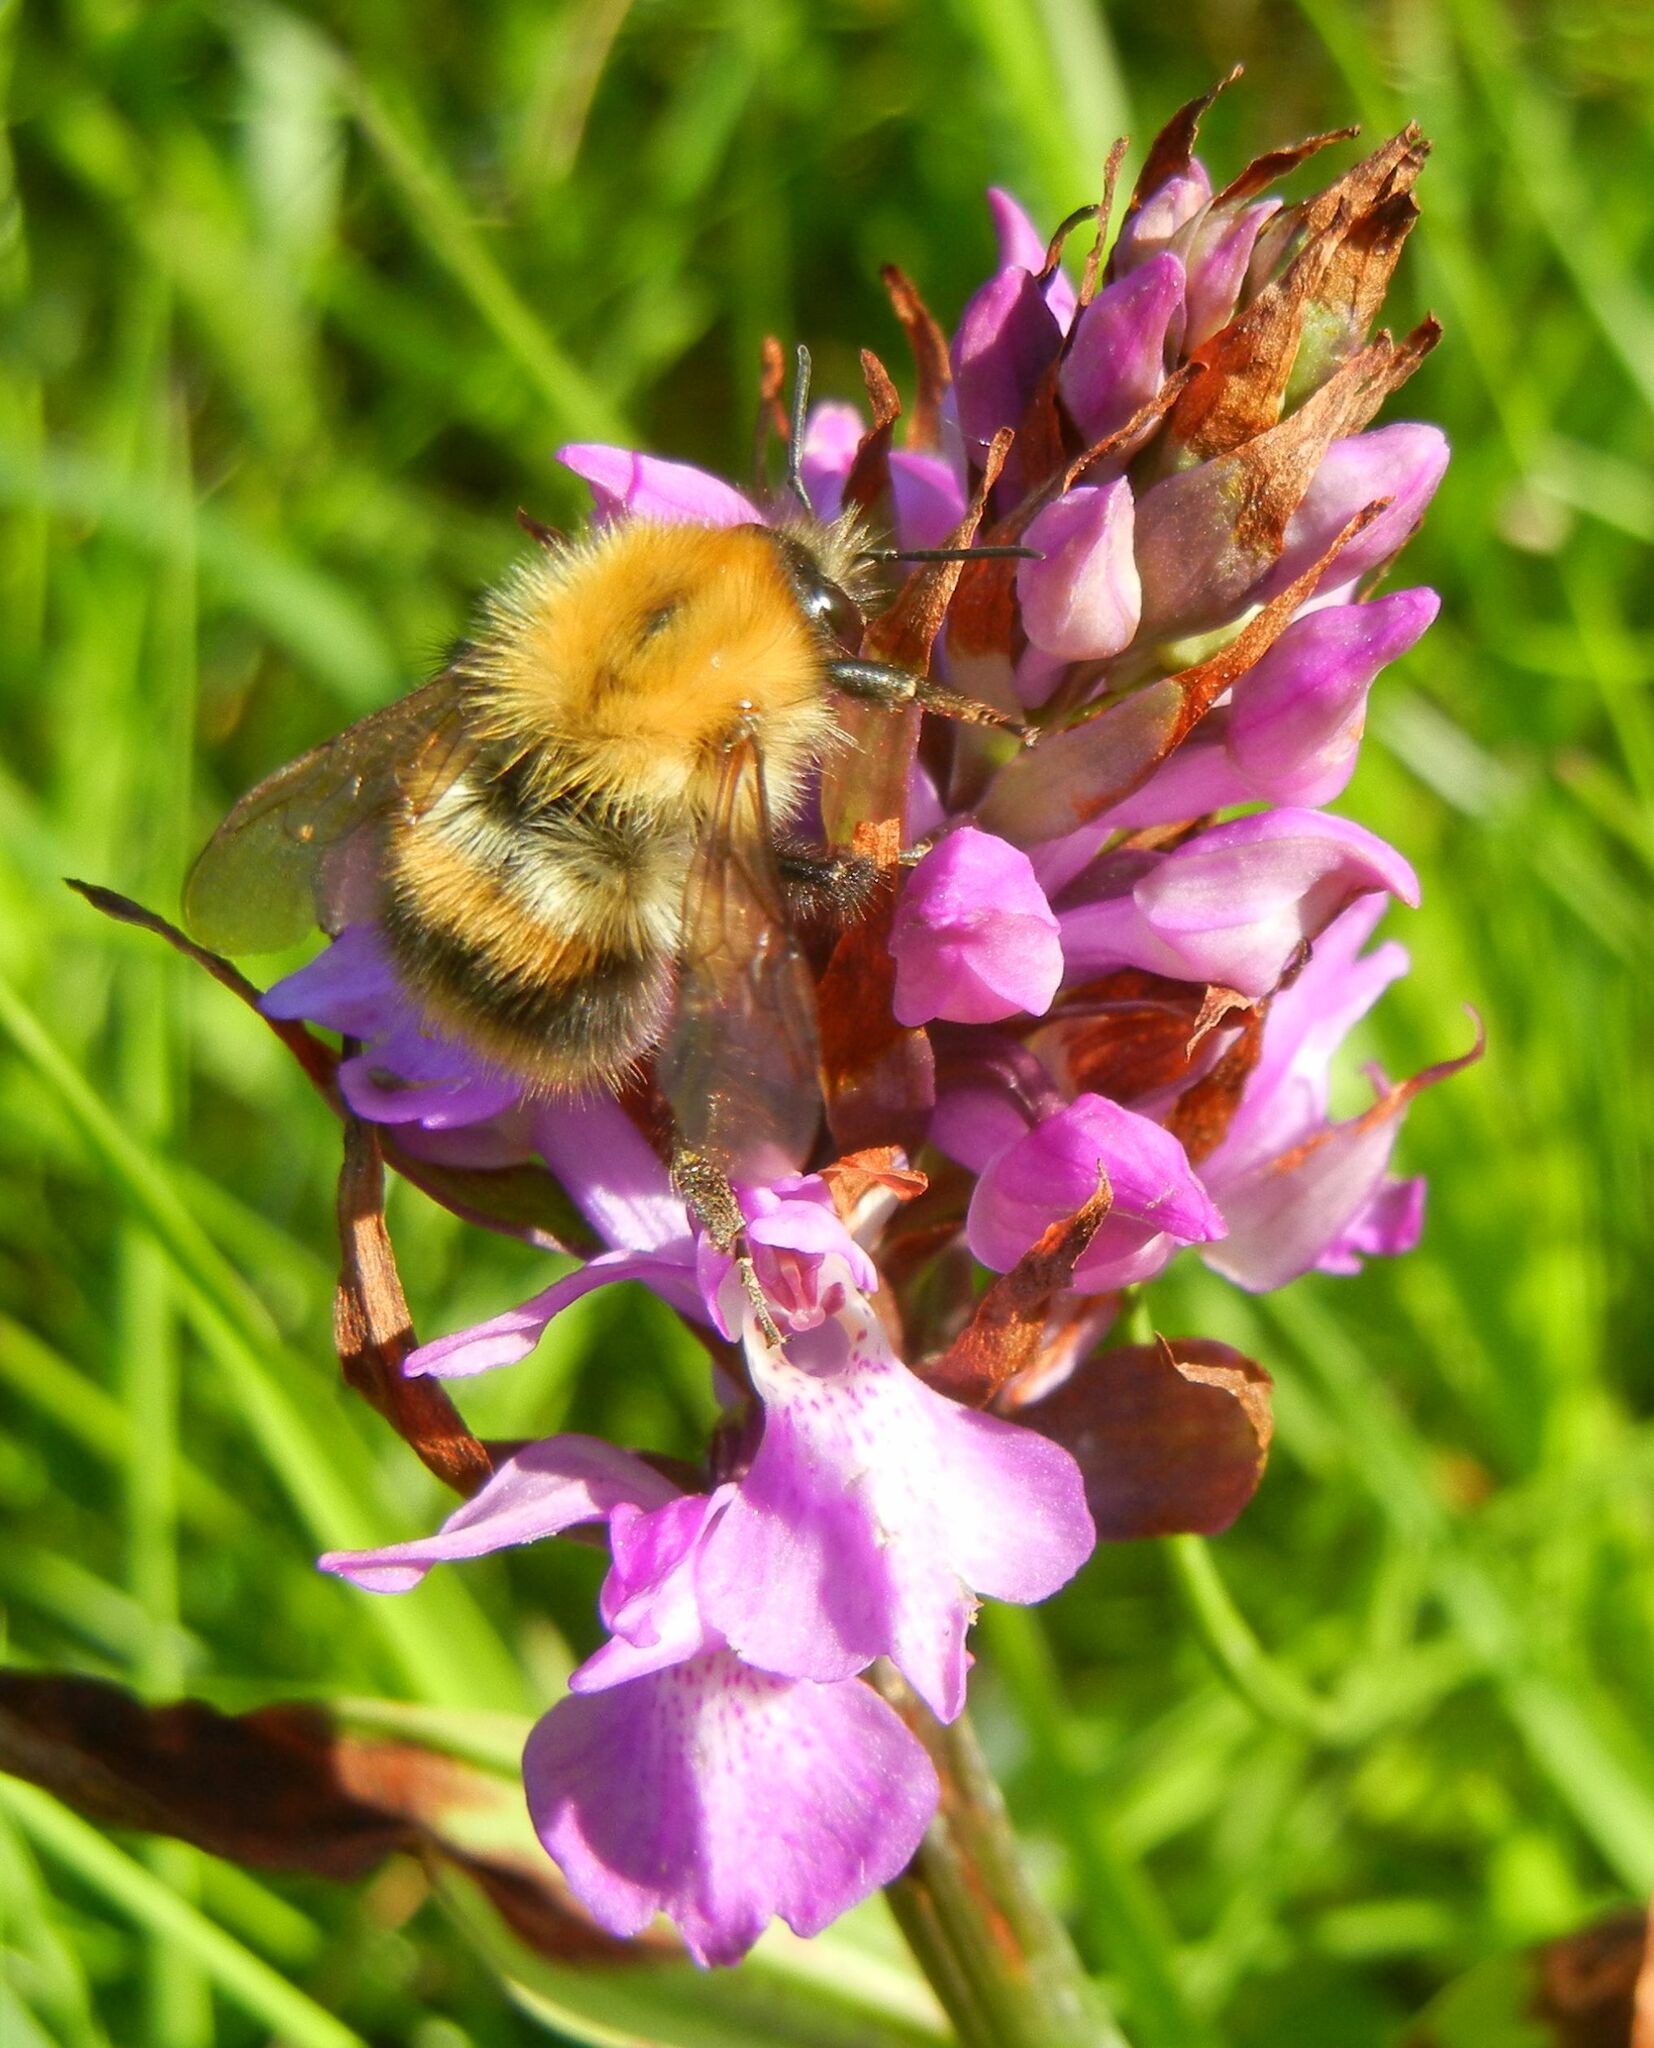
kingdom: Animalia
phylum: Arthropoda
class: Insecta
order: Hymenoptera
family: Apidae
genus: Bombus
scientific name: Bombus pascuorum
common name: Common carder bee
